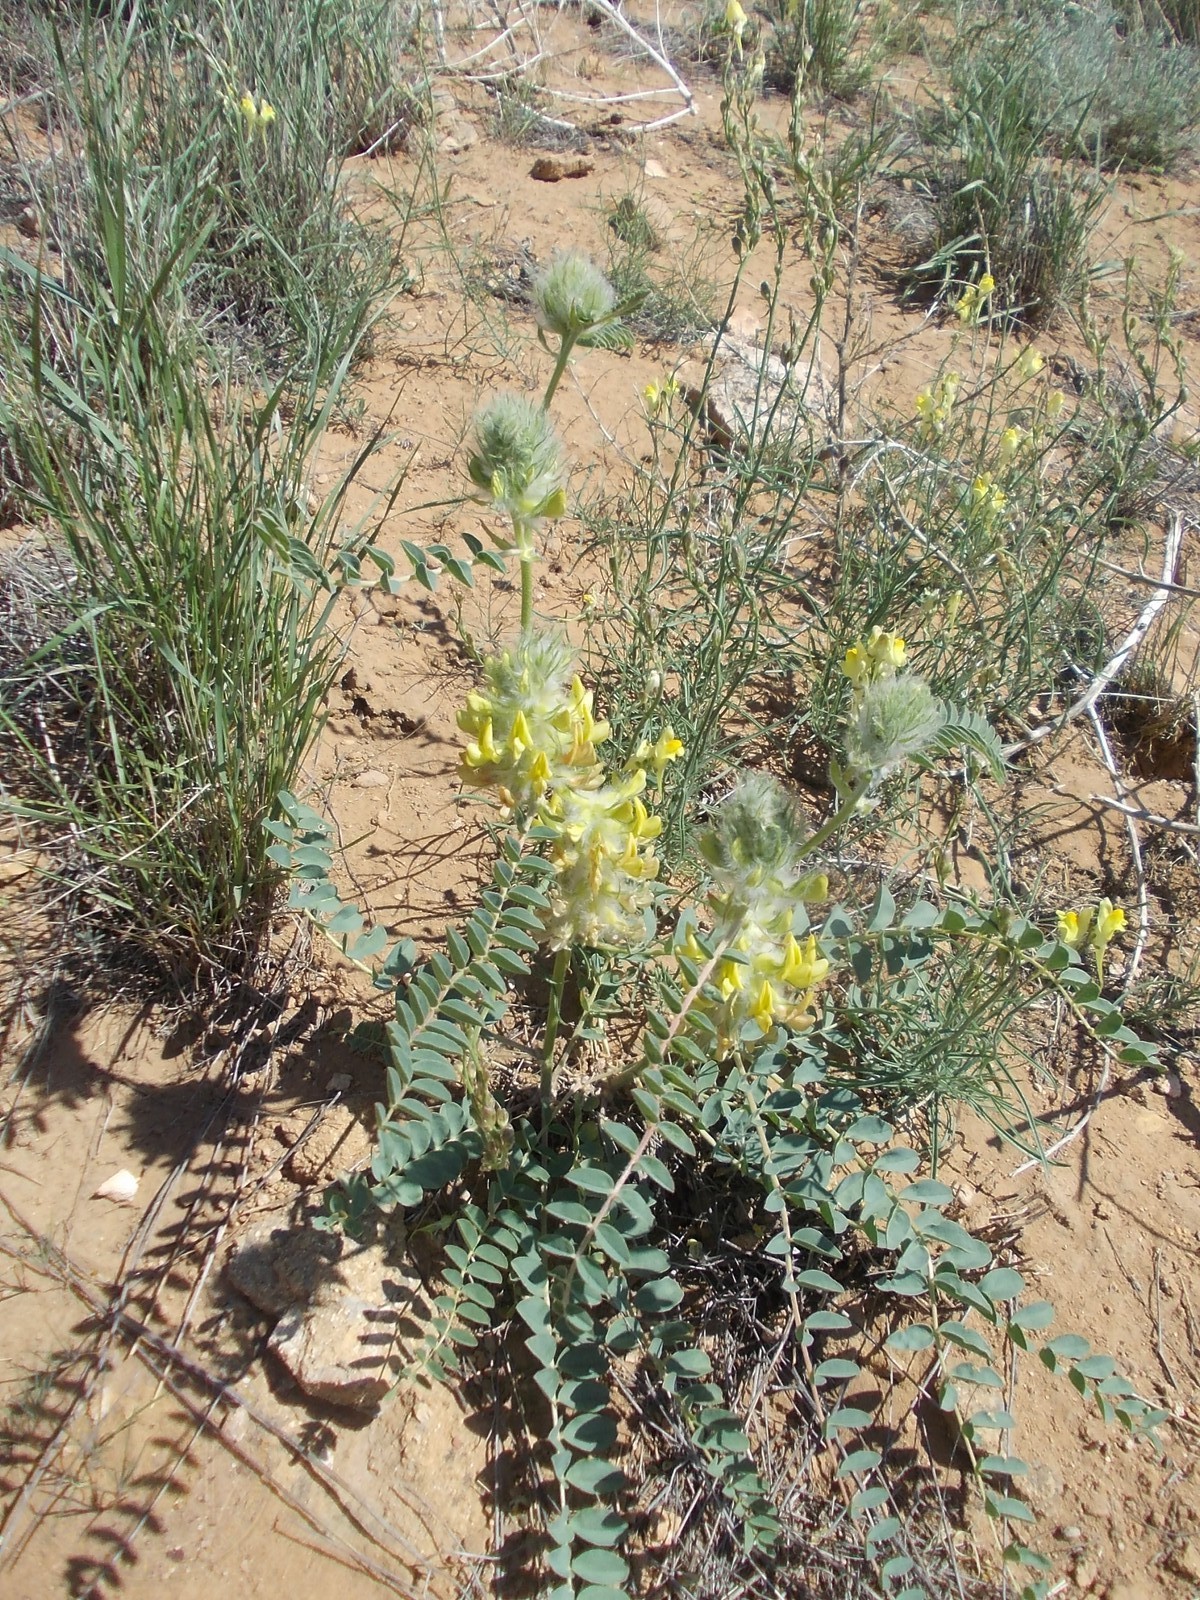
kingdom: Plantae
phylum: Tracheophyta
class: Magnoliopsida
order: Fabales
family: Fabaceae
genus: Astragalus
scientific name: Astragalus vulpinus
